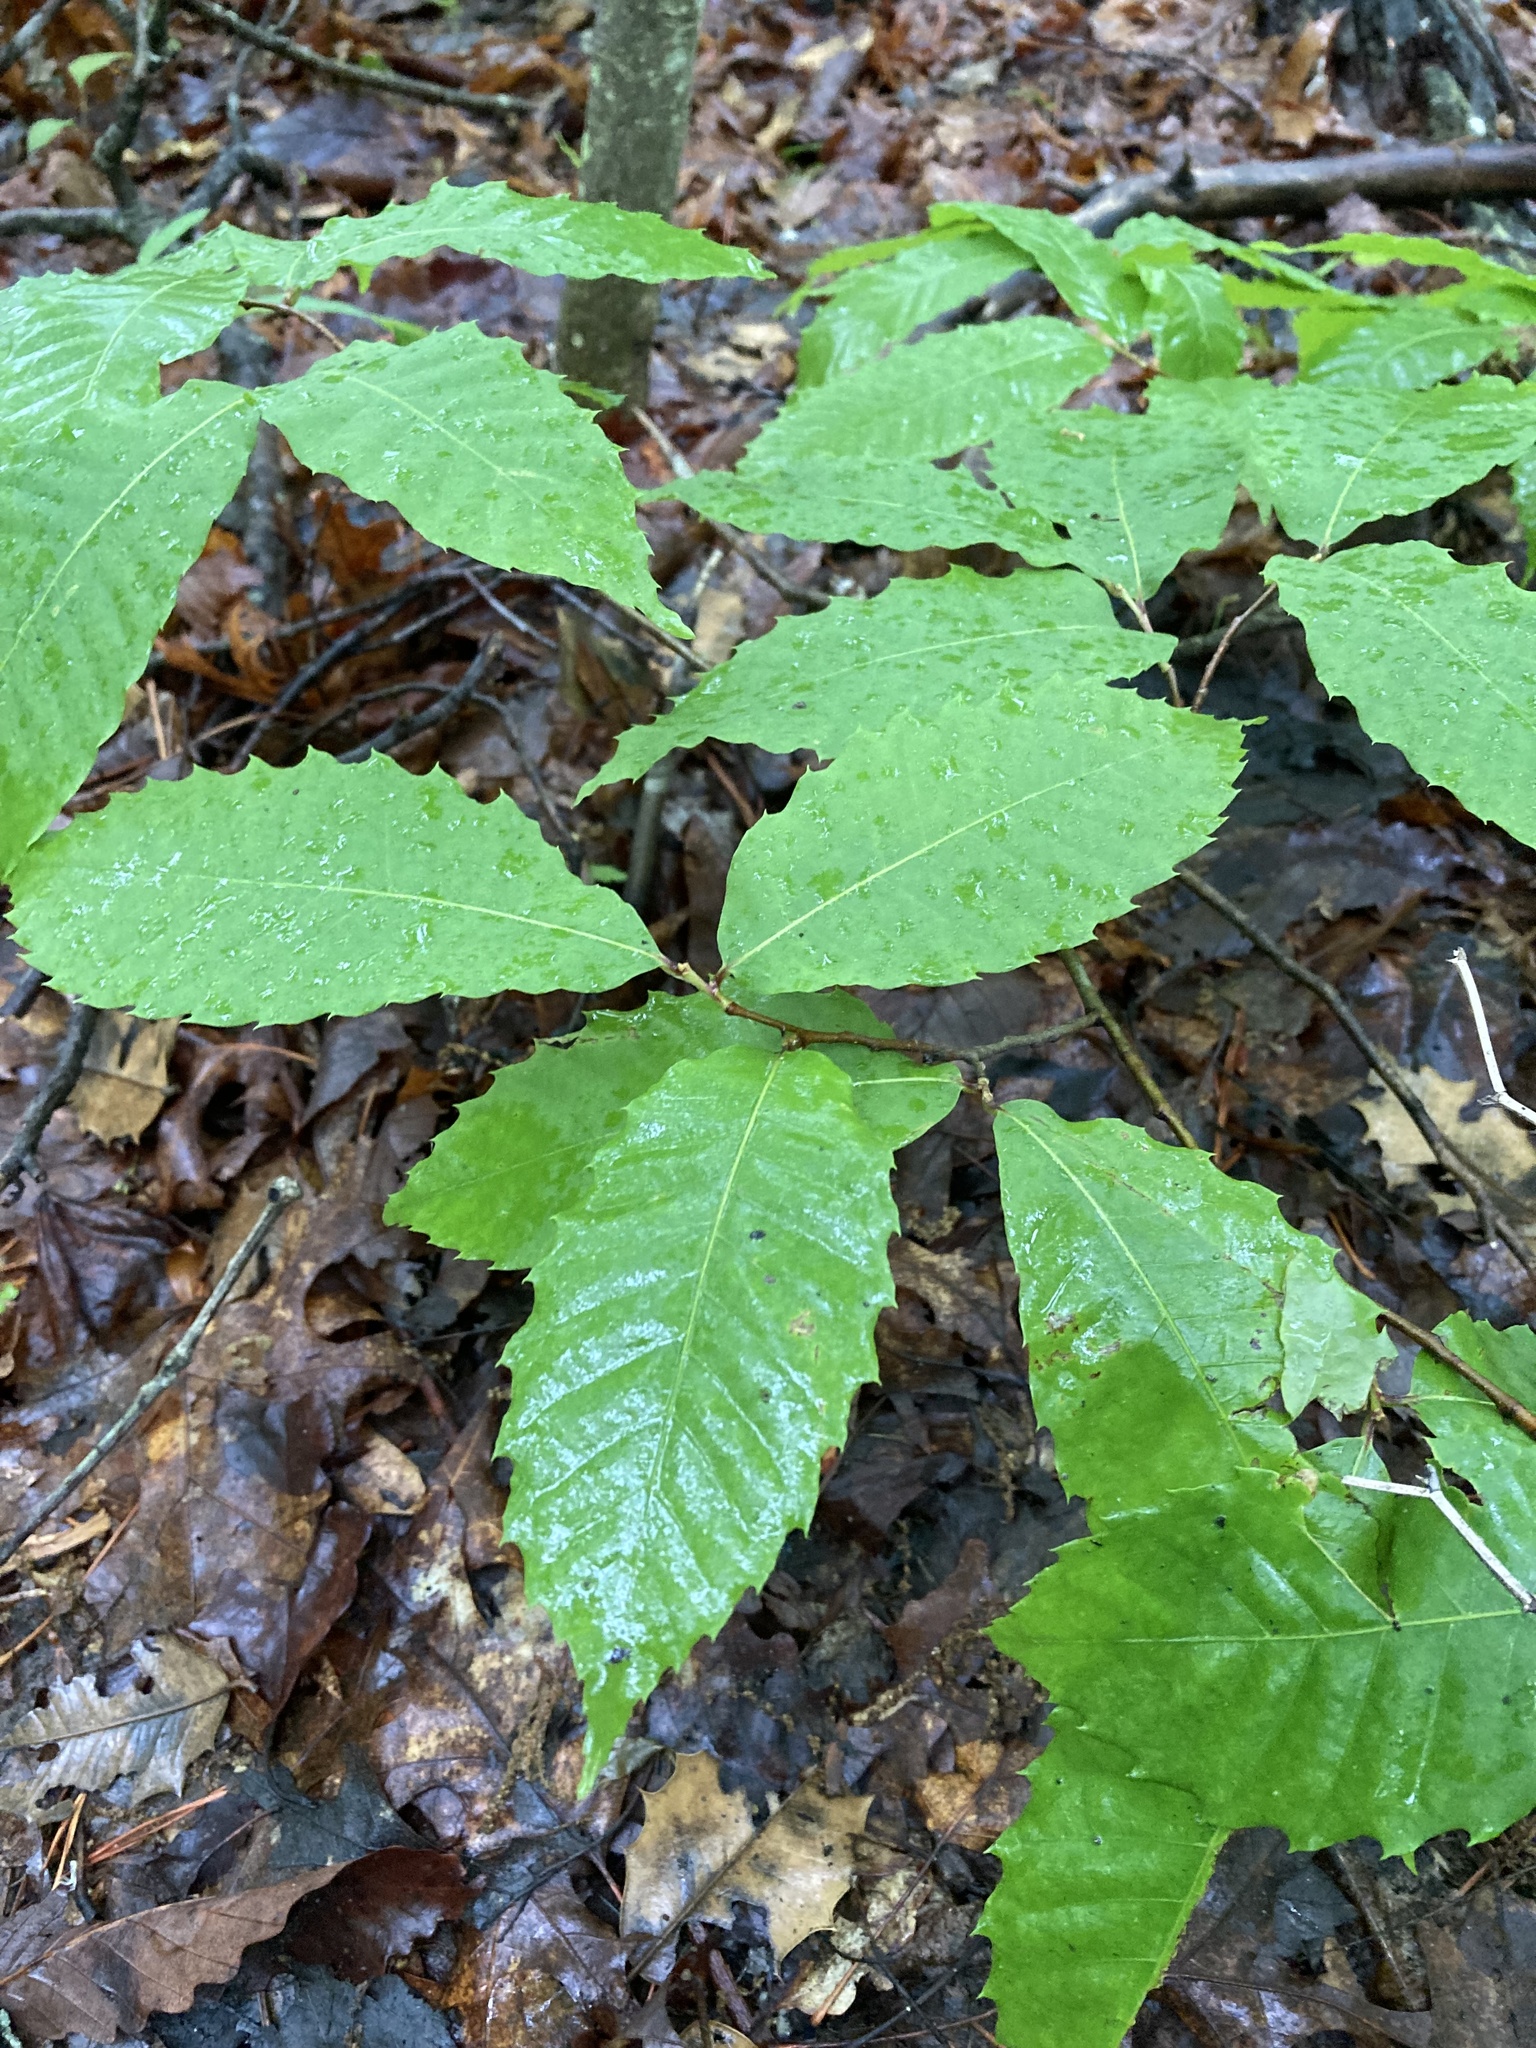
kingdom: Plantae
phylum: Tracheophyta
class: Magnoliopsida
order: Fagales
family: Fagaceae
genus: Castanea
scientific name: Castanea dentata
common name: American chestnut
